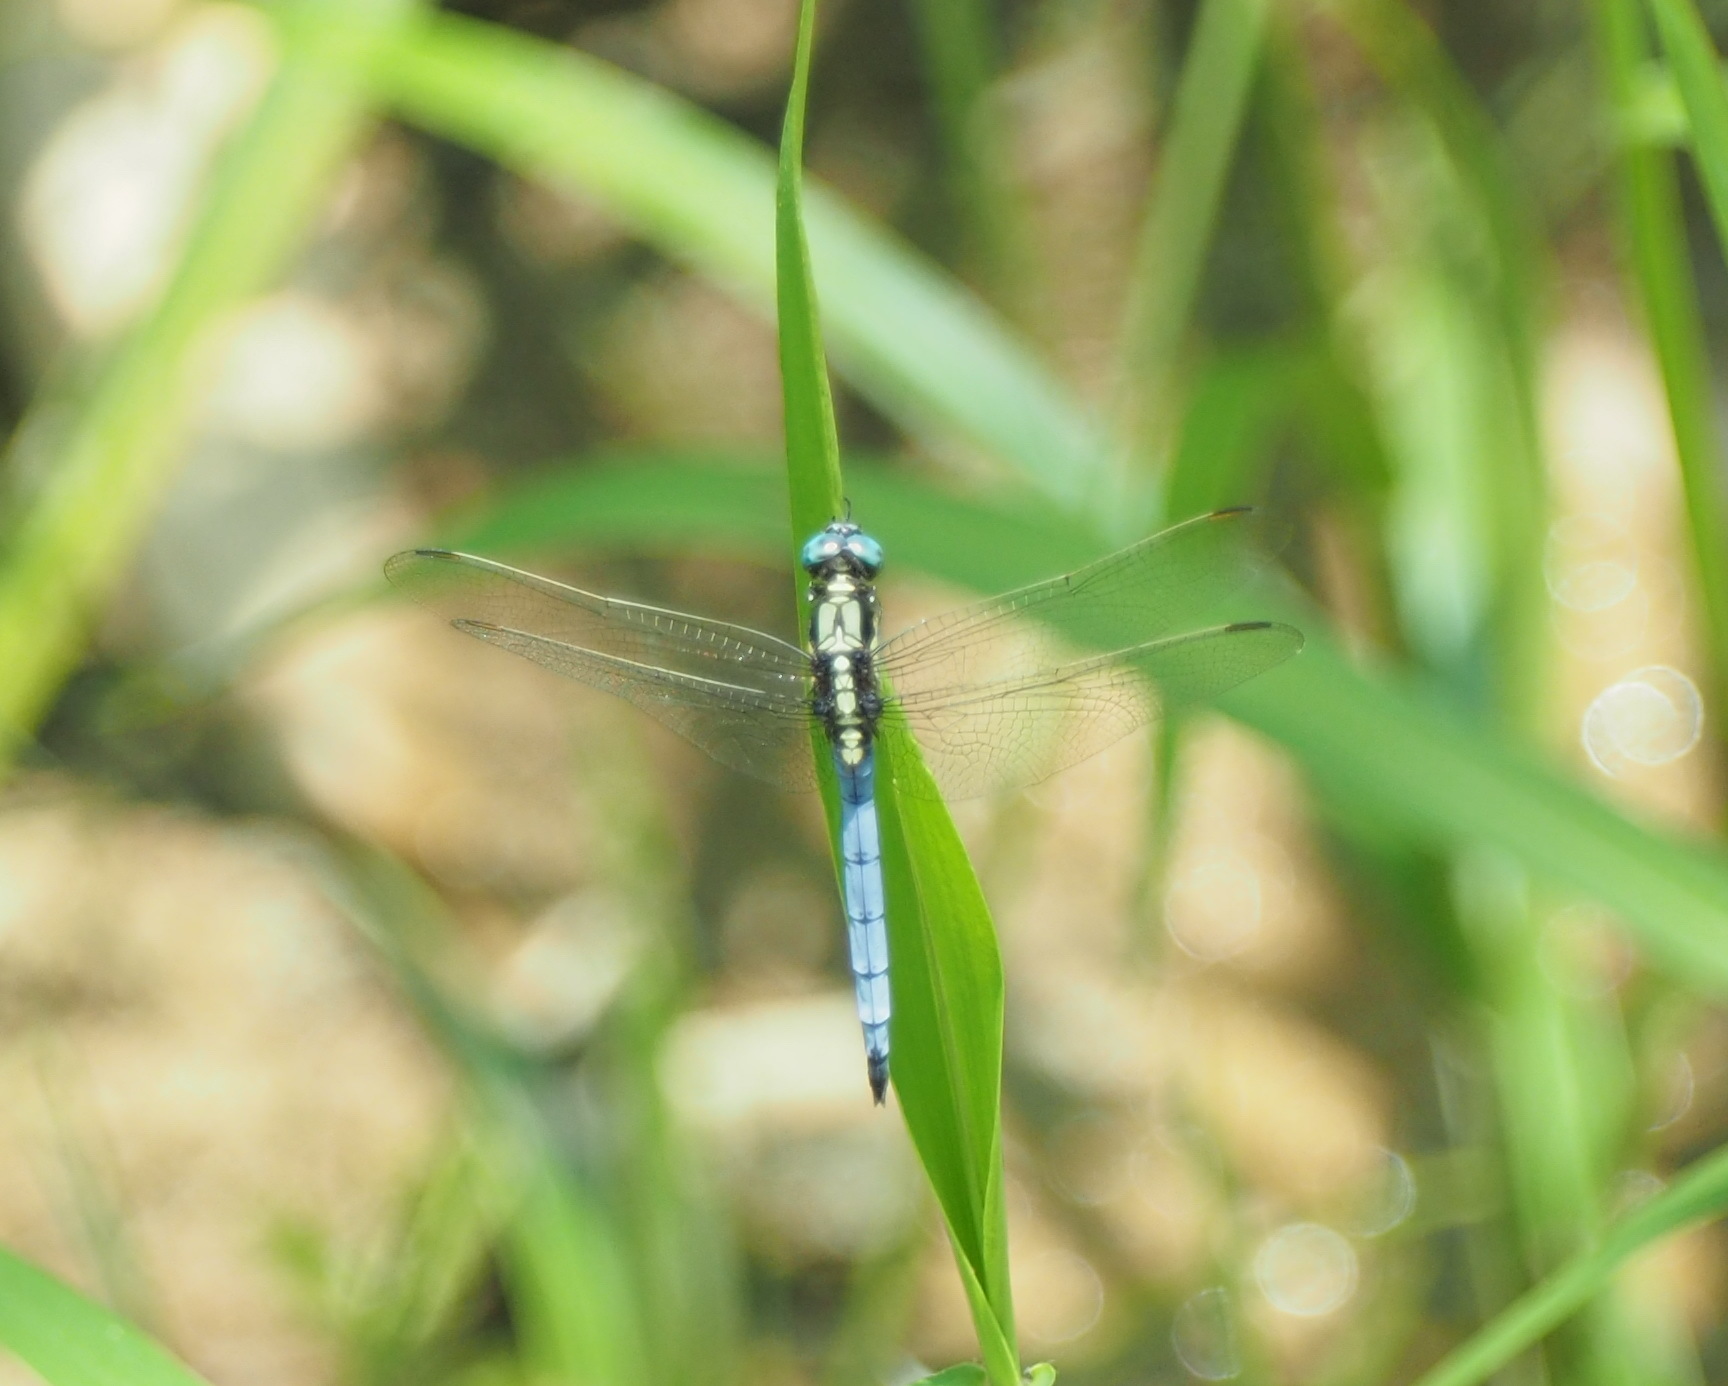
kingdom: Animalia
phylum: Arthropoda
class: Insecta
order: Odonata
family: Libellulidae
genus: Orthetrum
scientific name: Orthetrum luzonicum
